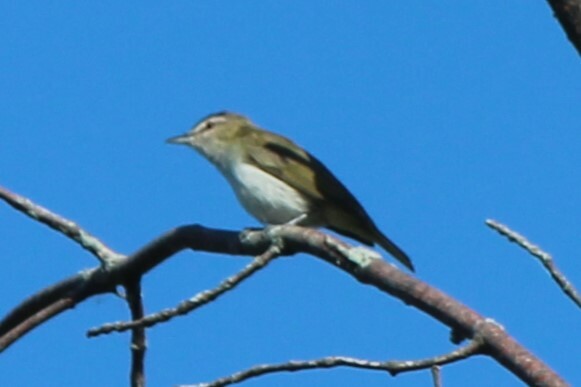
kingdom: Animalia
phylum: Chordata
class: Aves
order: Passeriformes
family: Vireonidae
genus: Vireo
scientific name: Vireo olivaceus
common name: Red-eyed vireo
